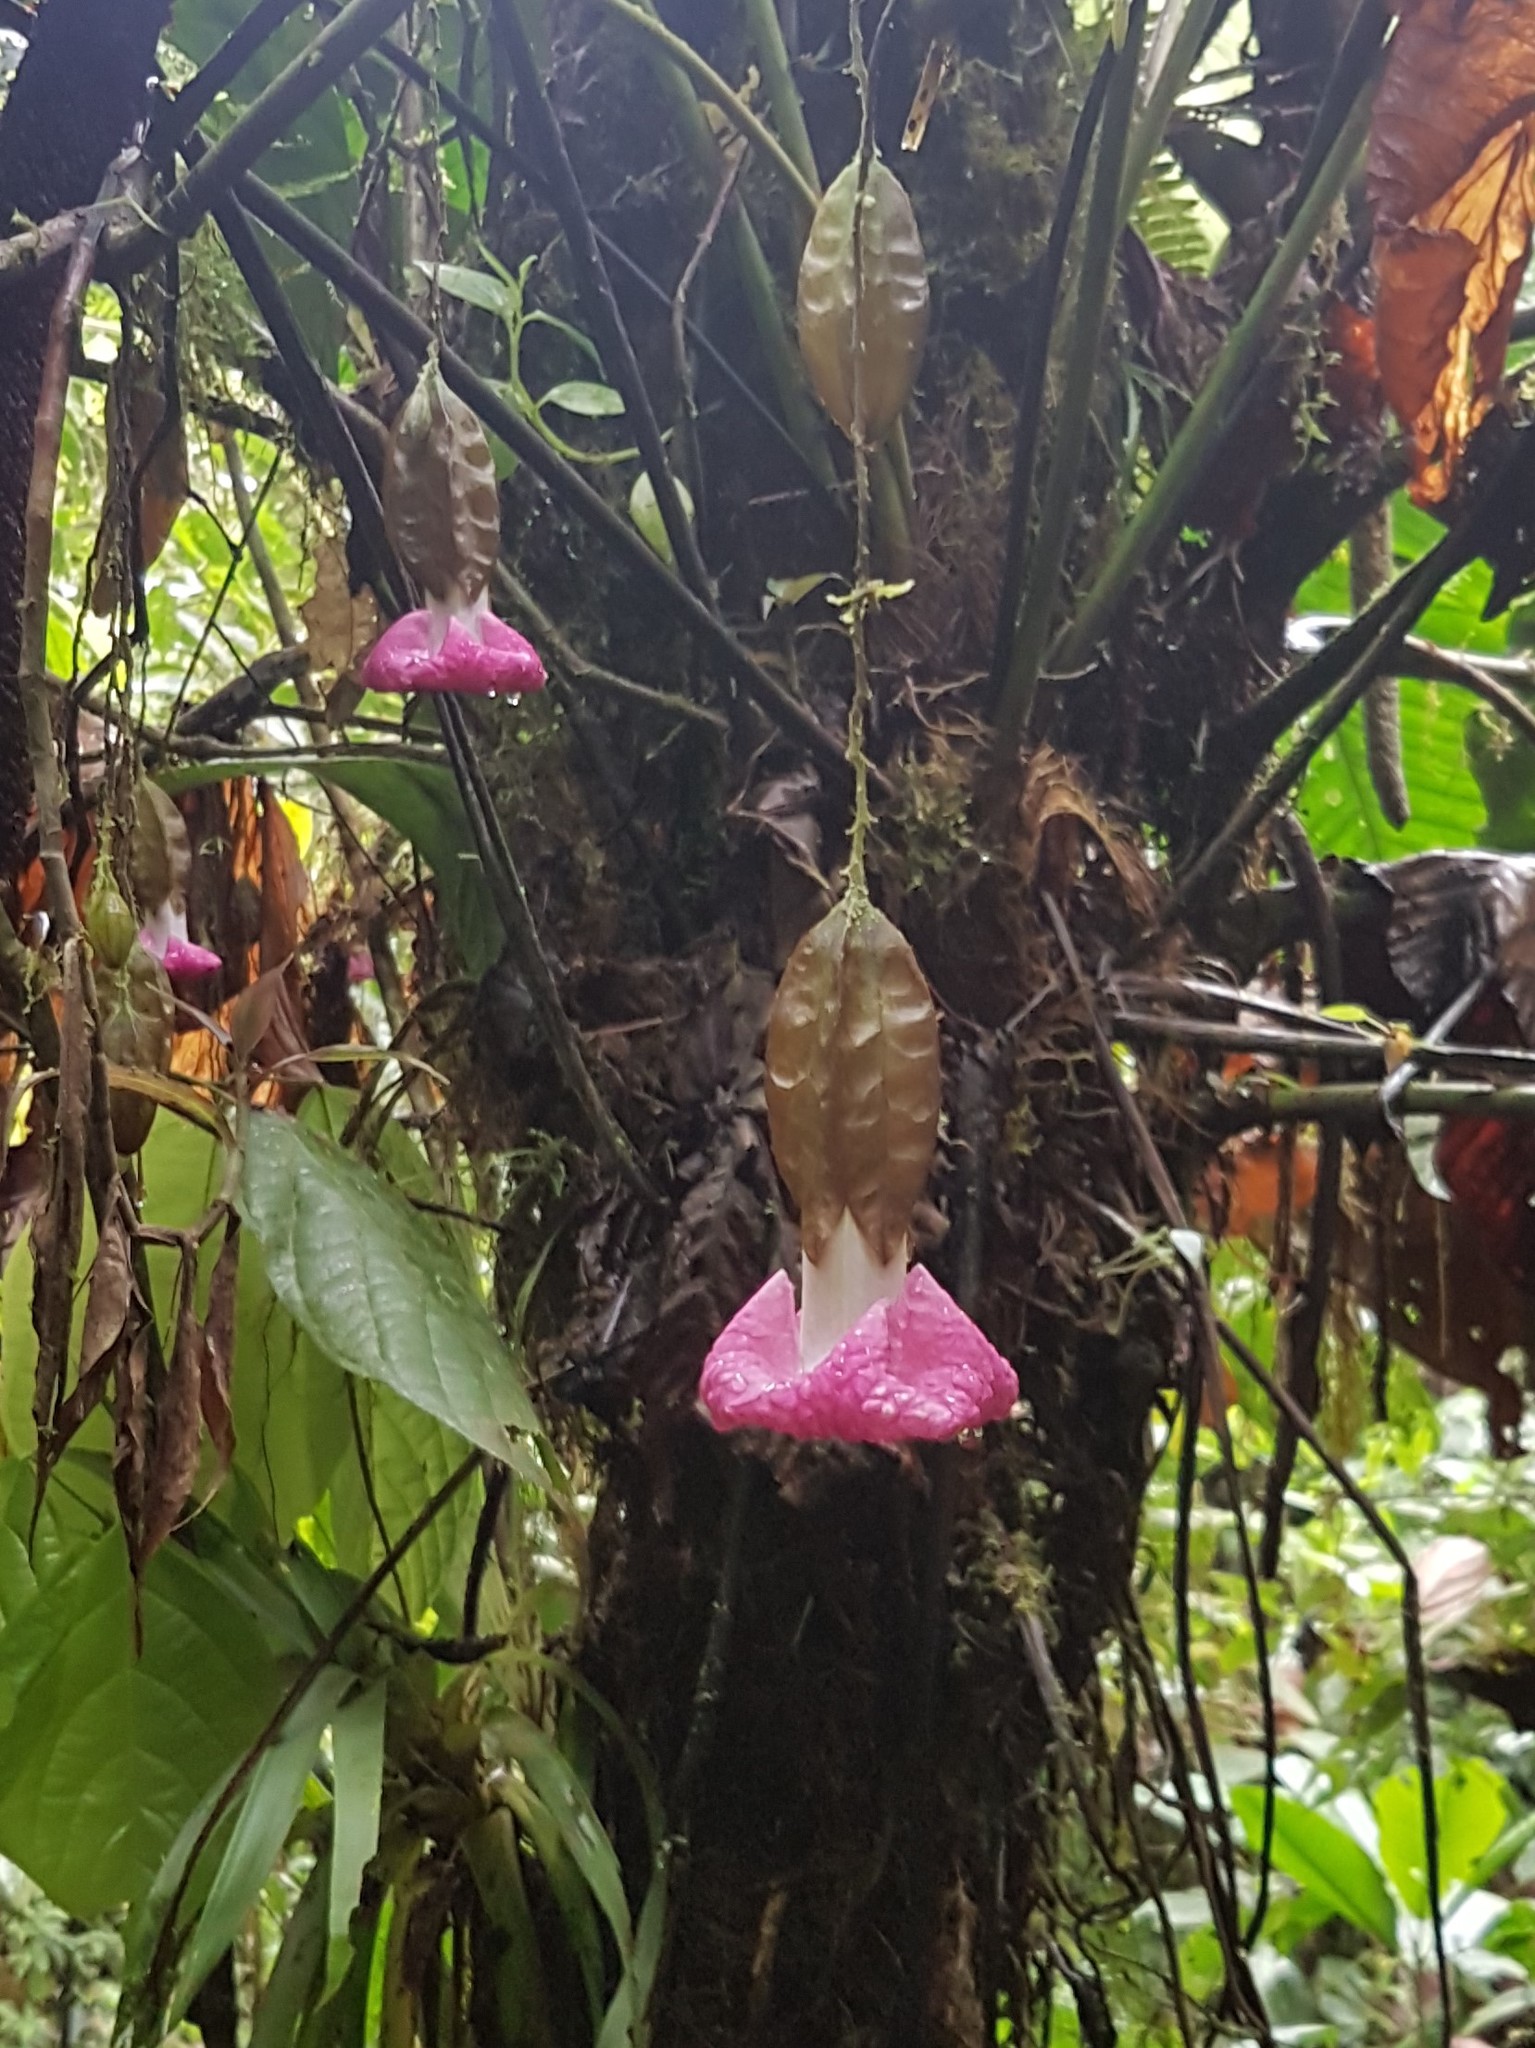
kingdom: Plantae
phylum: Tracheophyta
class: Magnoliopsida
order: Solanales
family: Solanaceae
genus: Markea
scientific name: Markea spruceana
